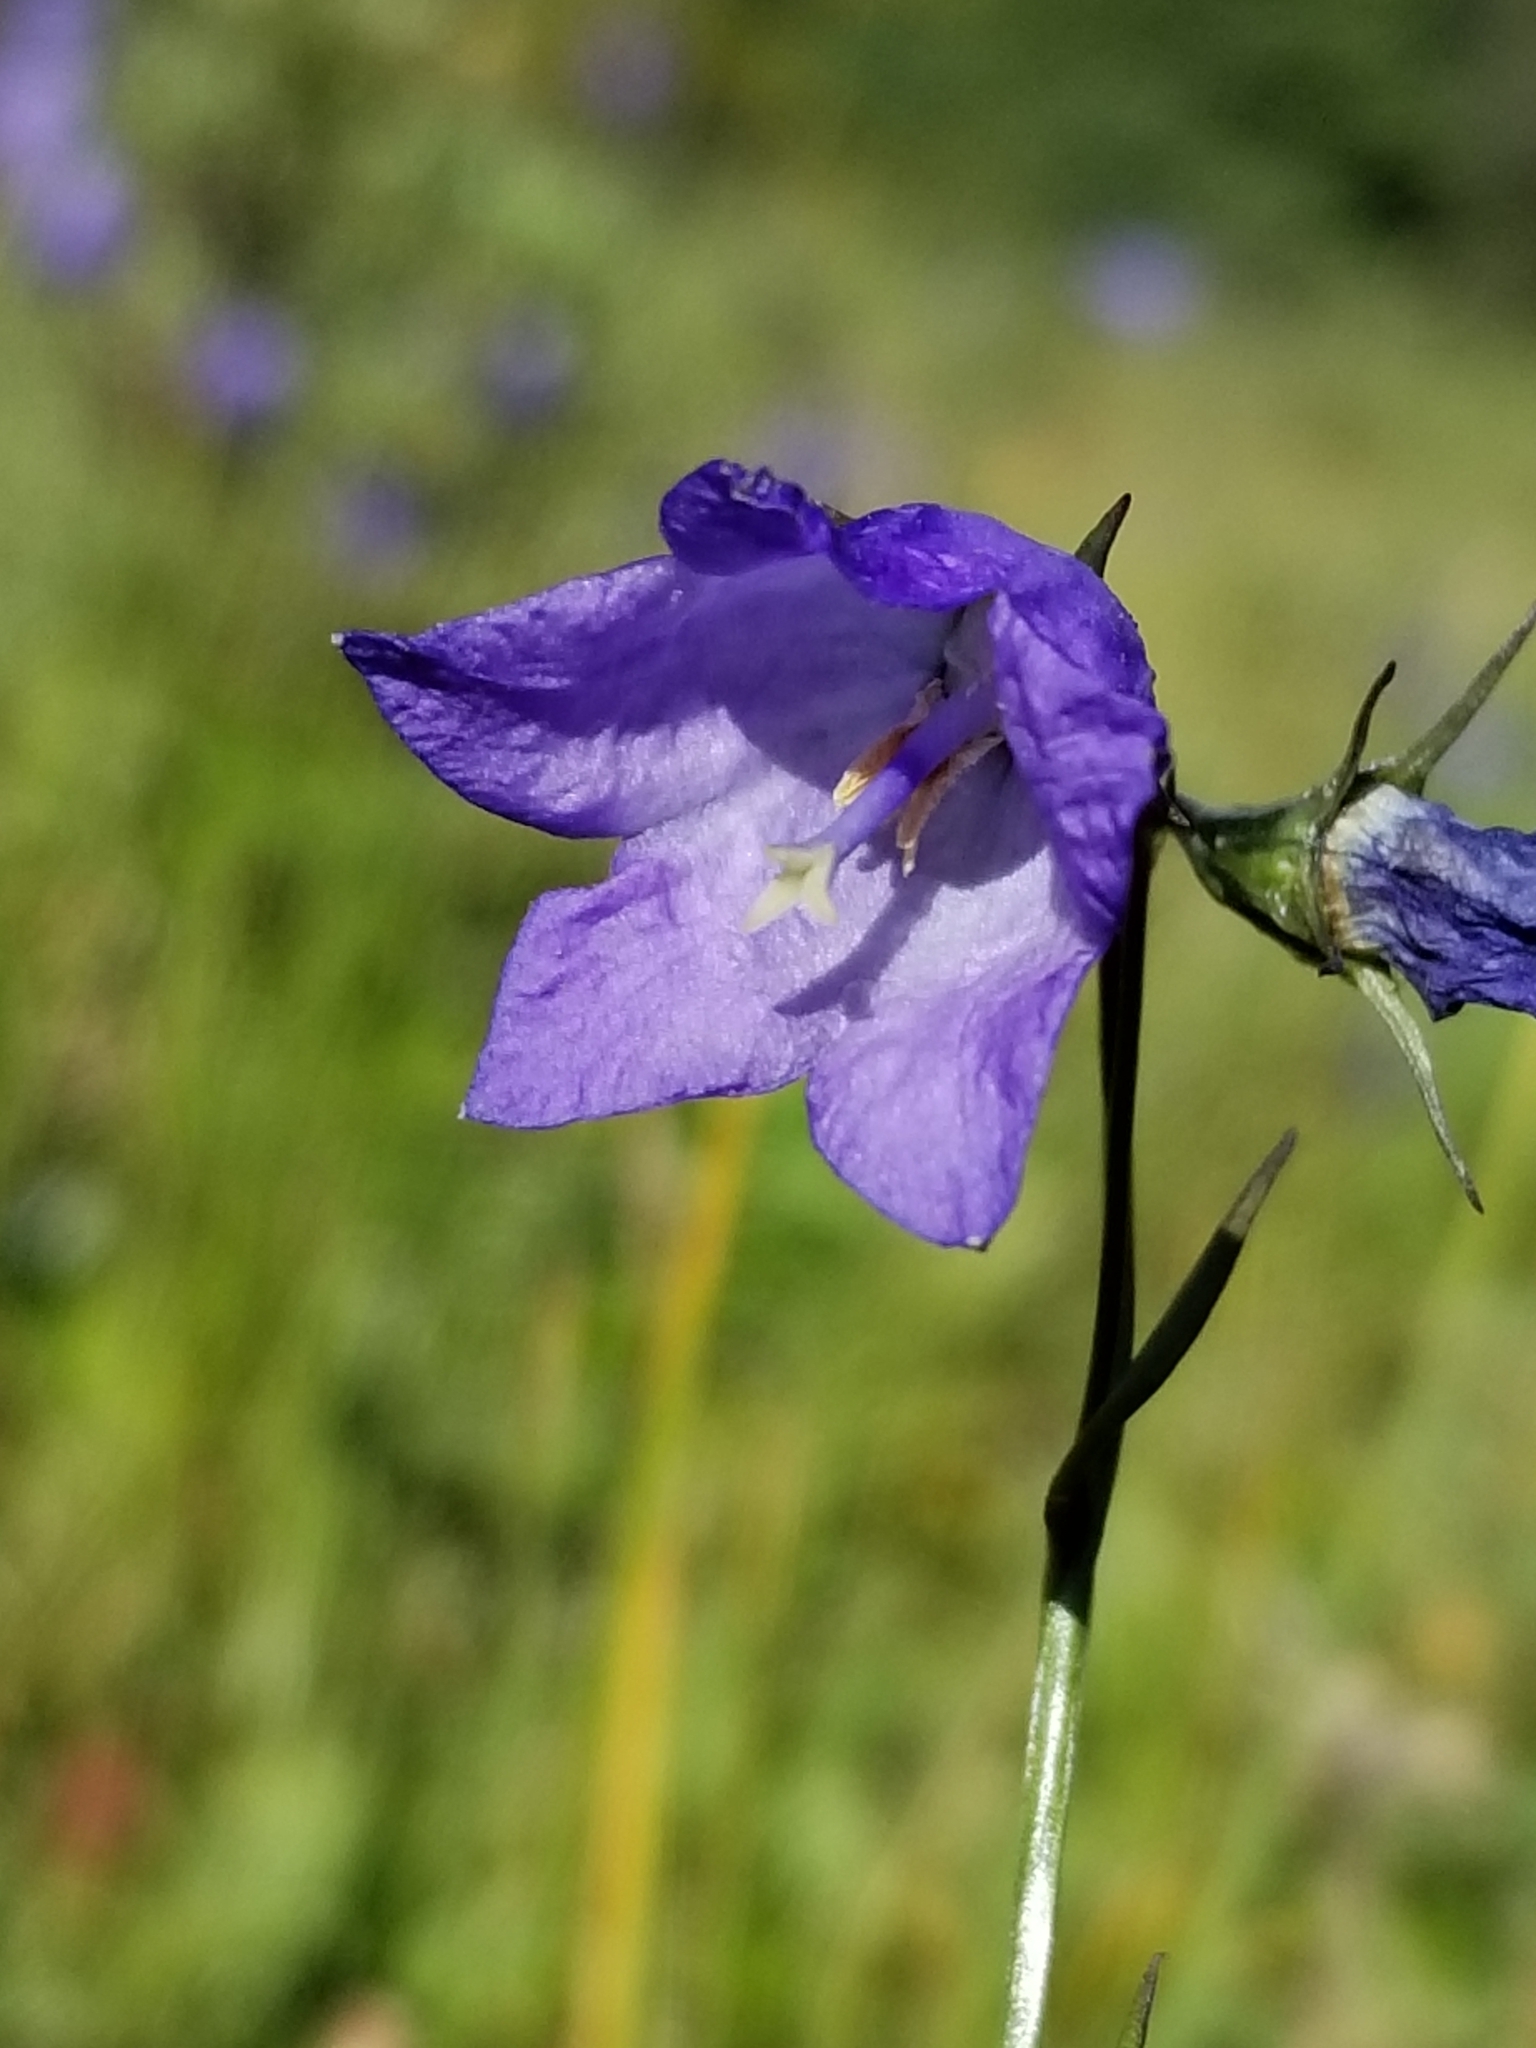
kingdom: Plantae
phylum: Tracheophyta
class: Magnoliopsida
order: Asterales
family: Campanulaceae
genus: Campanula
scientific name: Campanula petiolata
